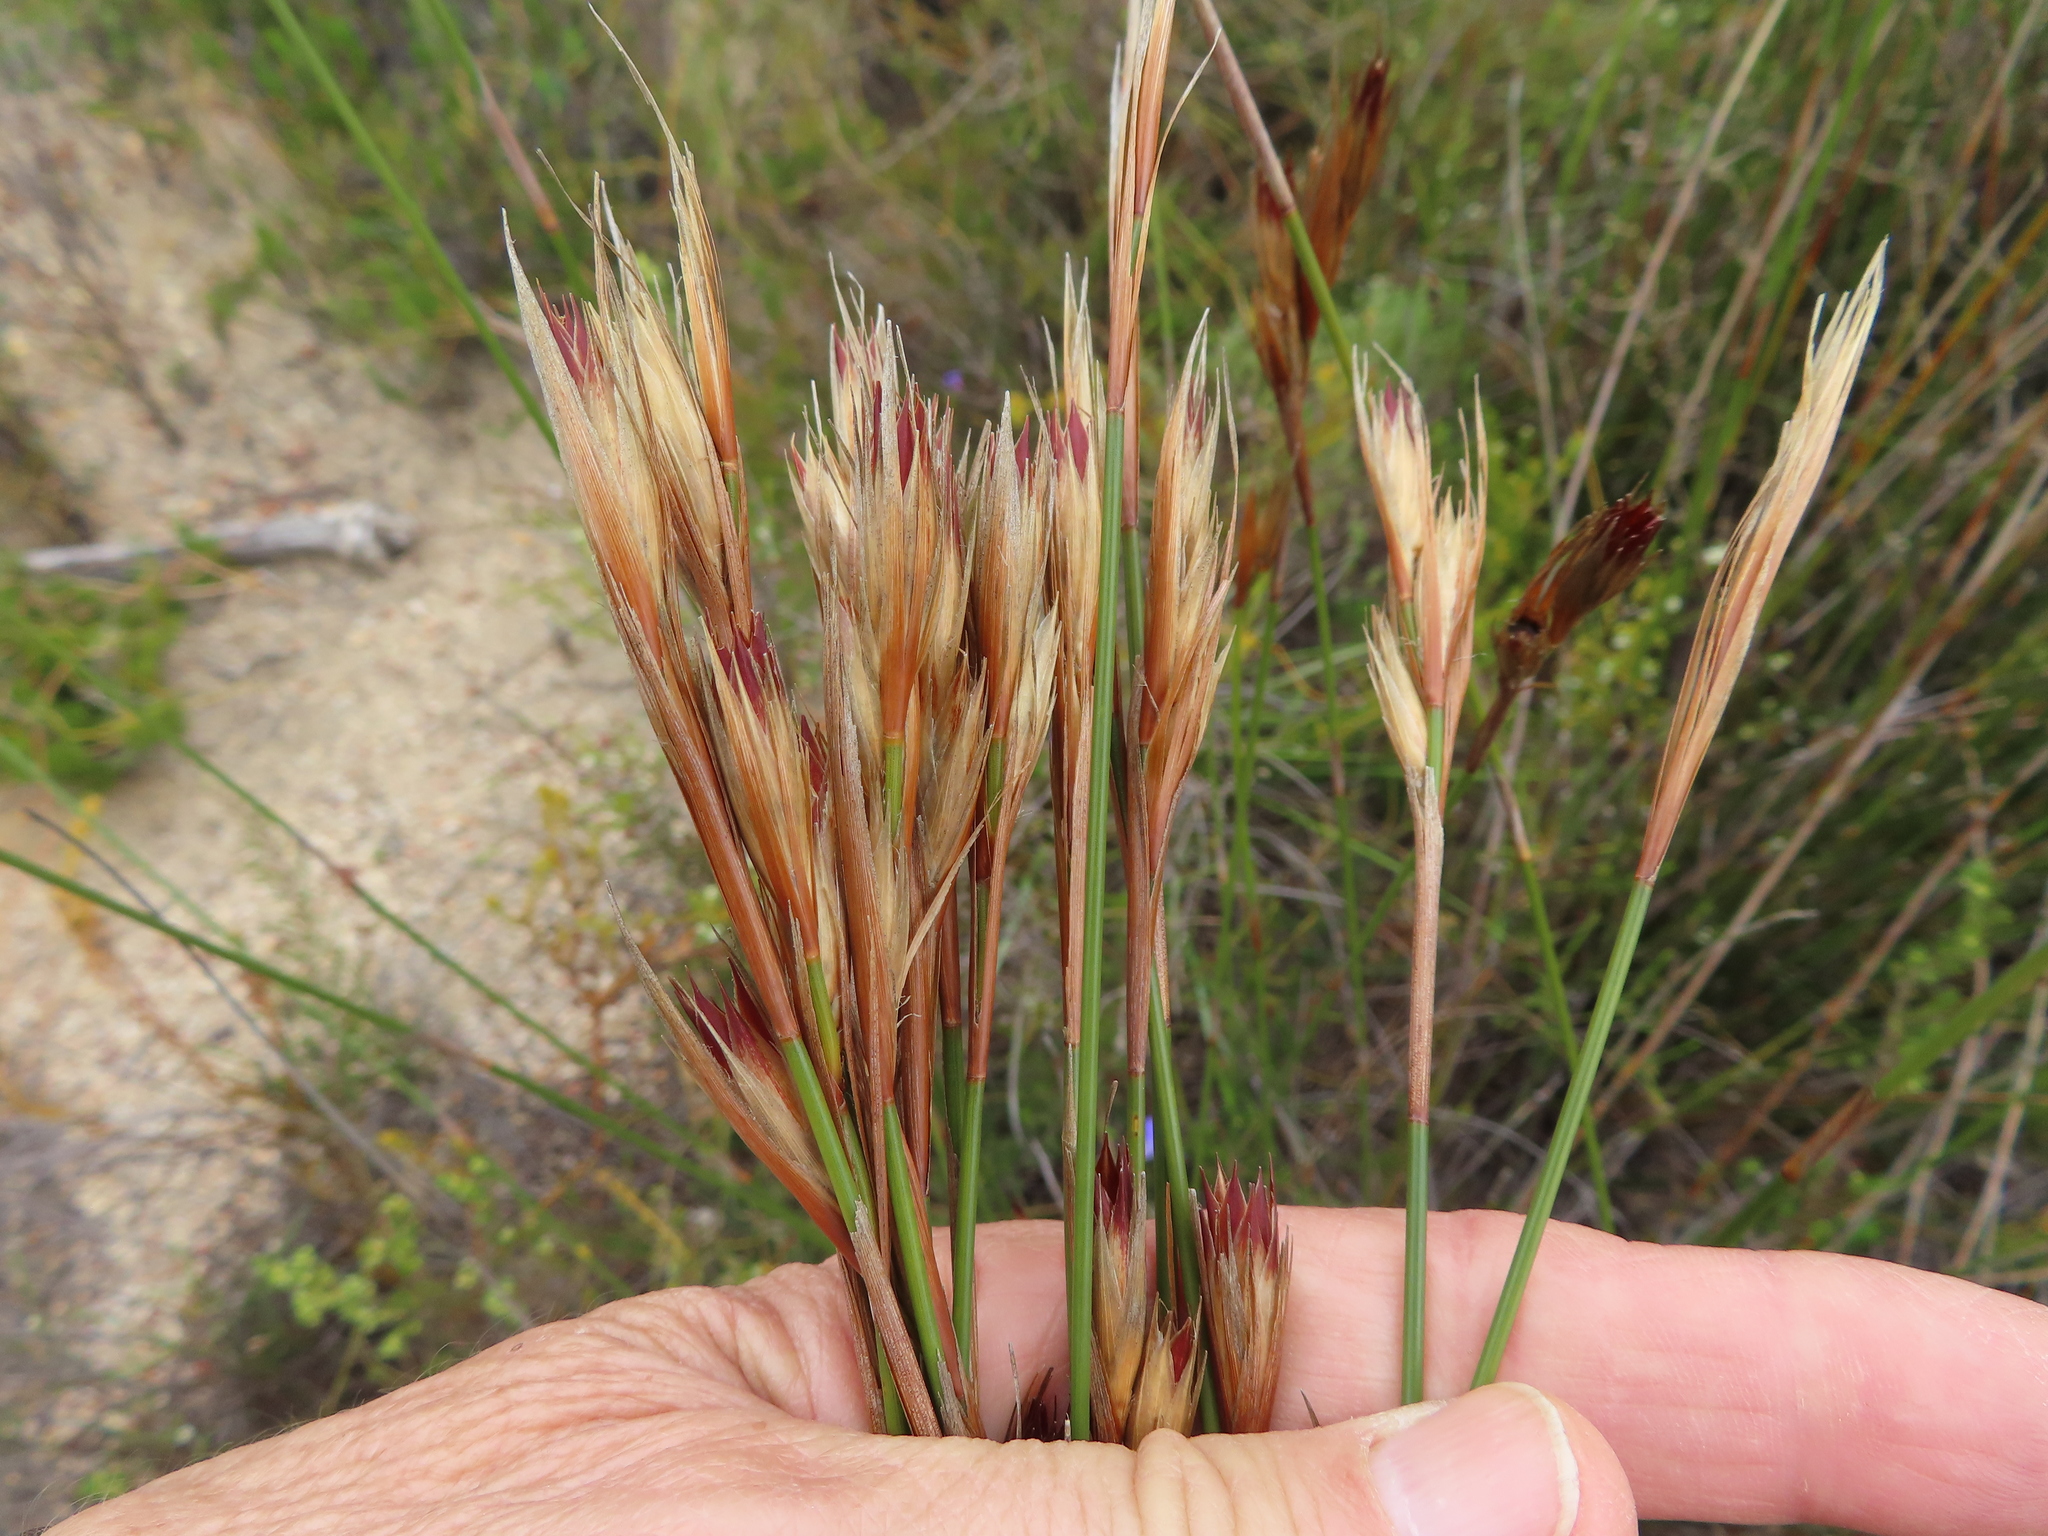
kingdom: Plantae
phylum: Tracheophyta
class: Liliopsida
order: Poales
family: Restionaceae
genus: Hypodiscus
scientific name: Hypodiscus argenteus
